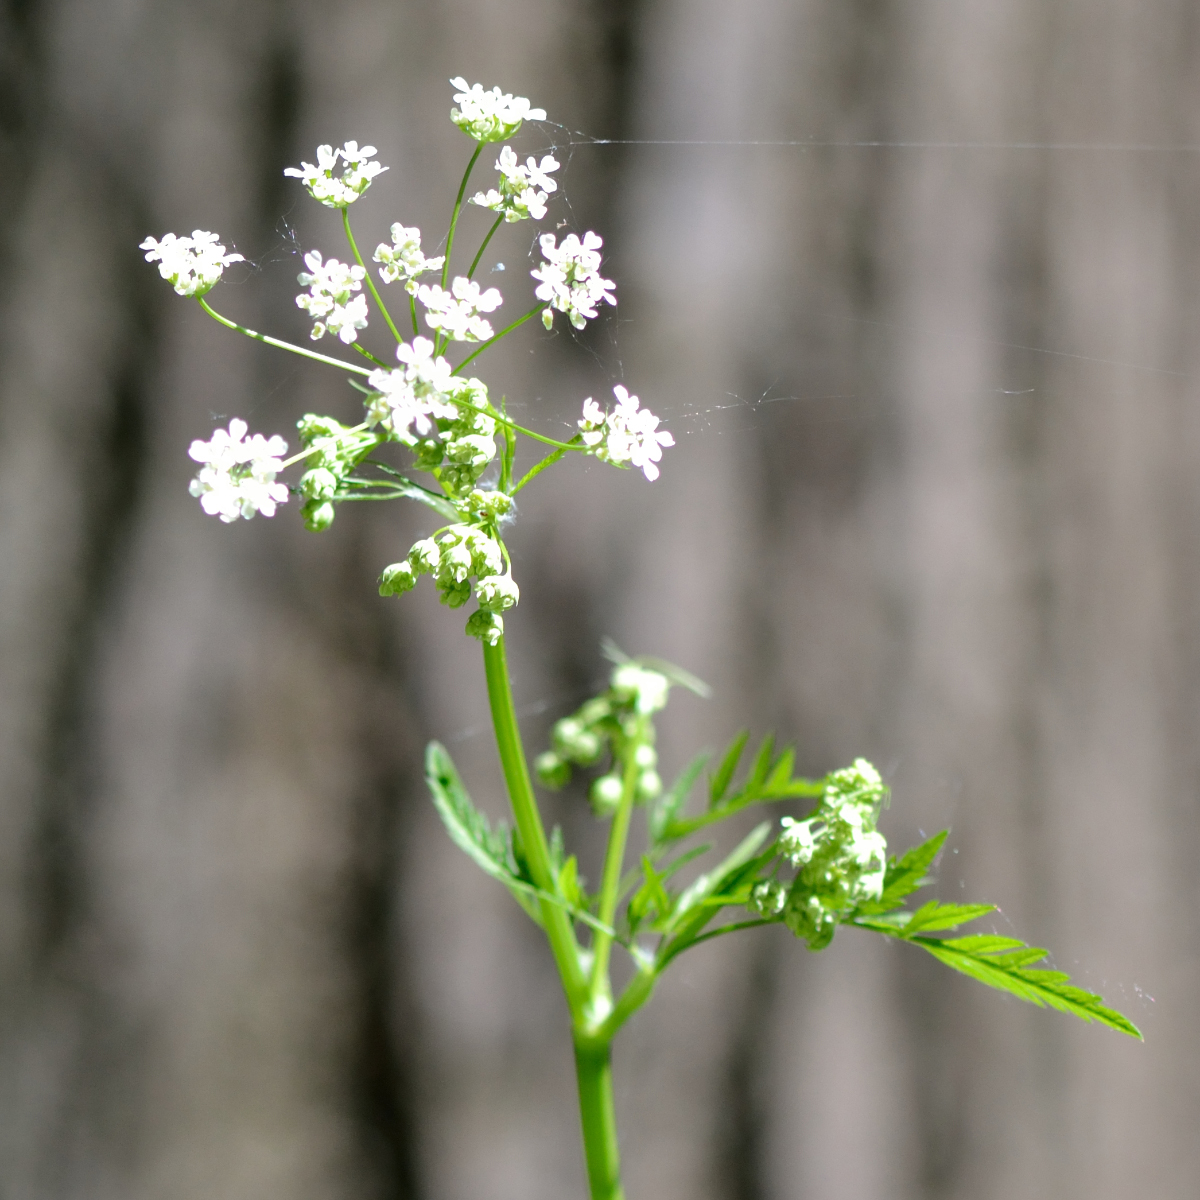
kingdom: Plantae
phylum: Tracheophyta
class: Magnoliopsida
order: Apiales
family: Apiaceae
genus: Anthriscus
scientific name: Anthriscus sylvestris
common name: Cow parsley
